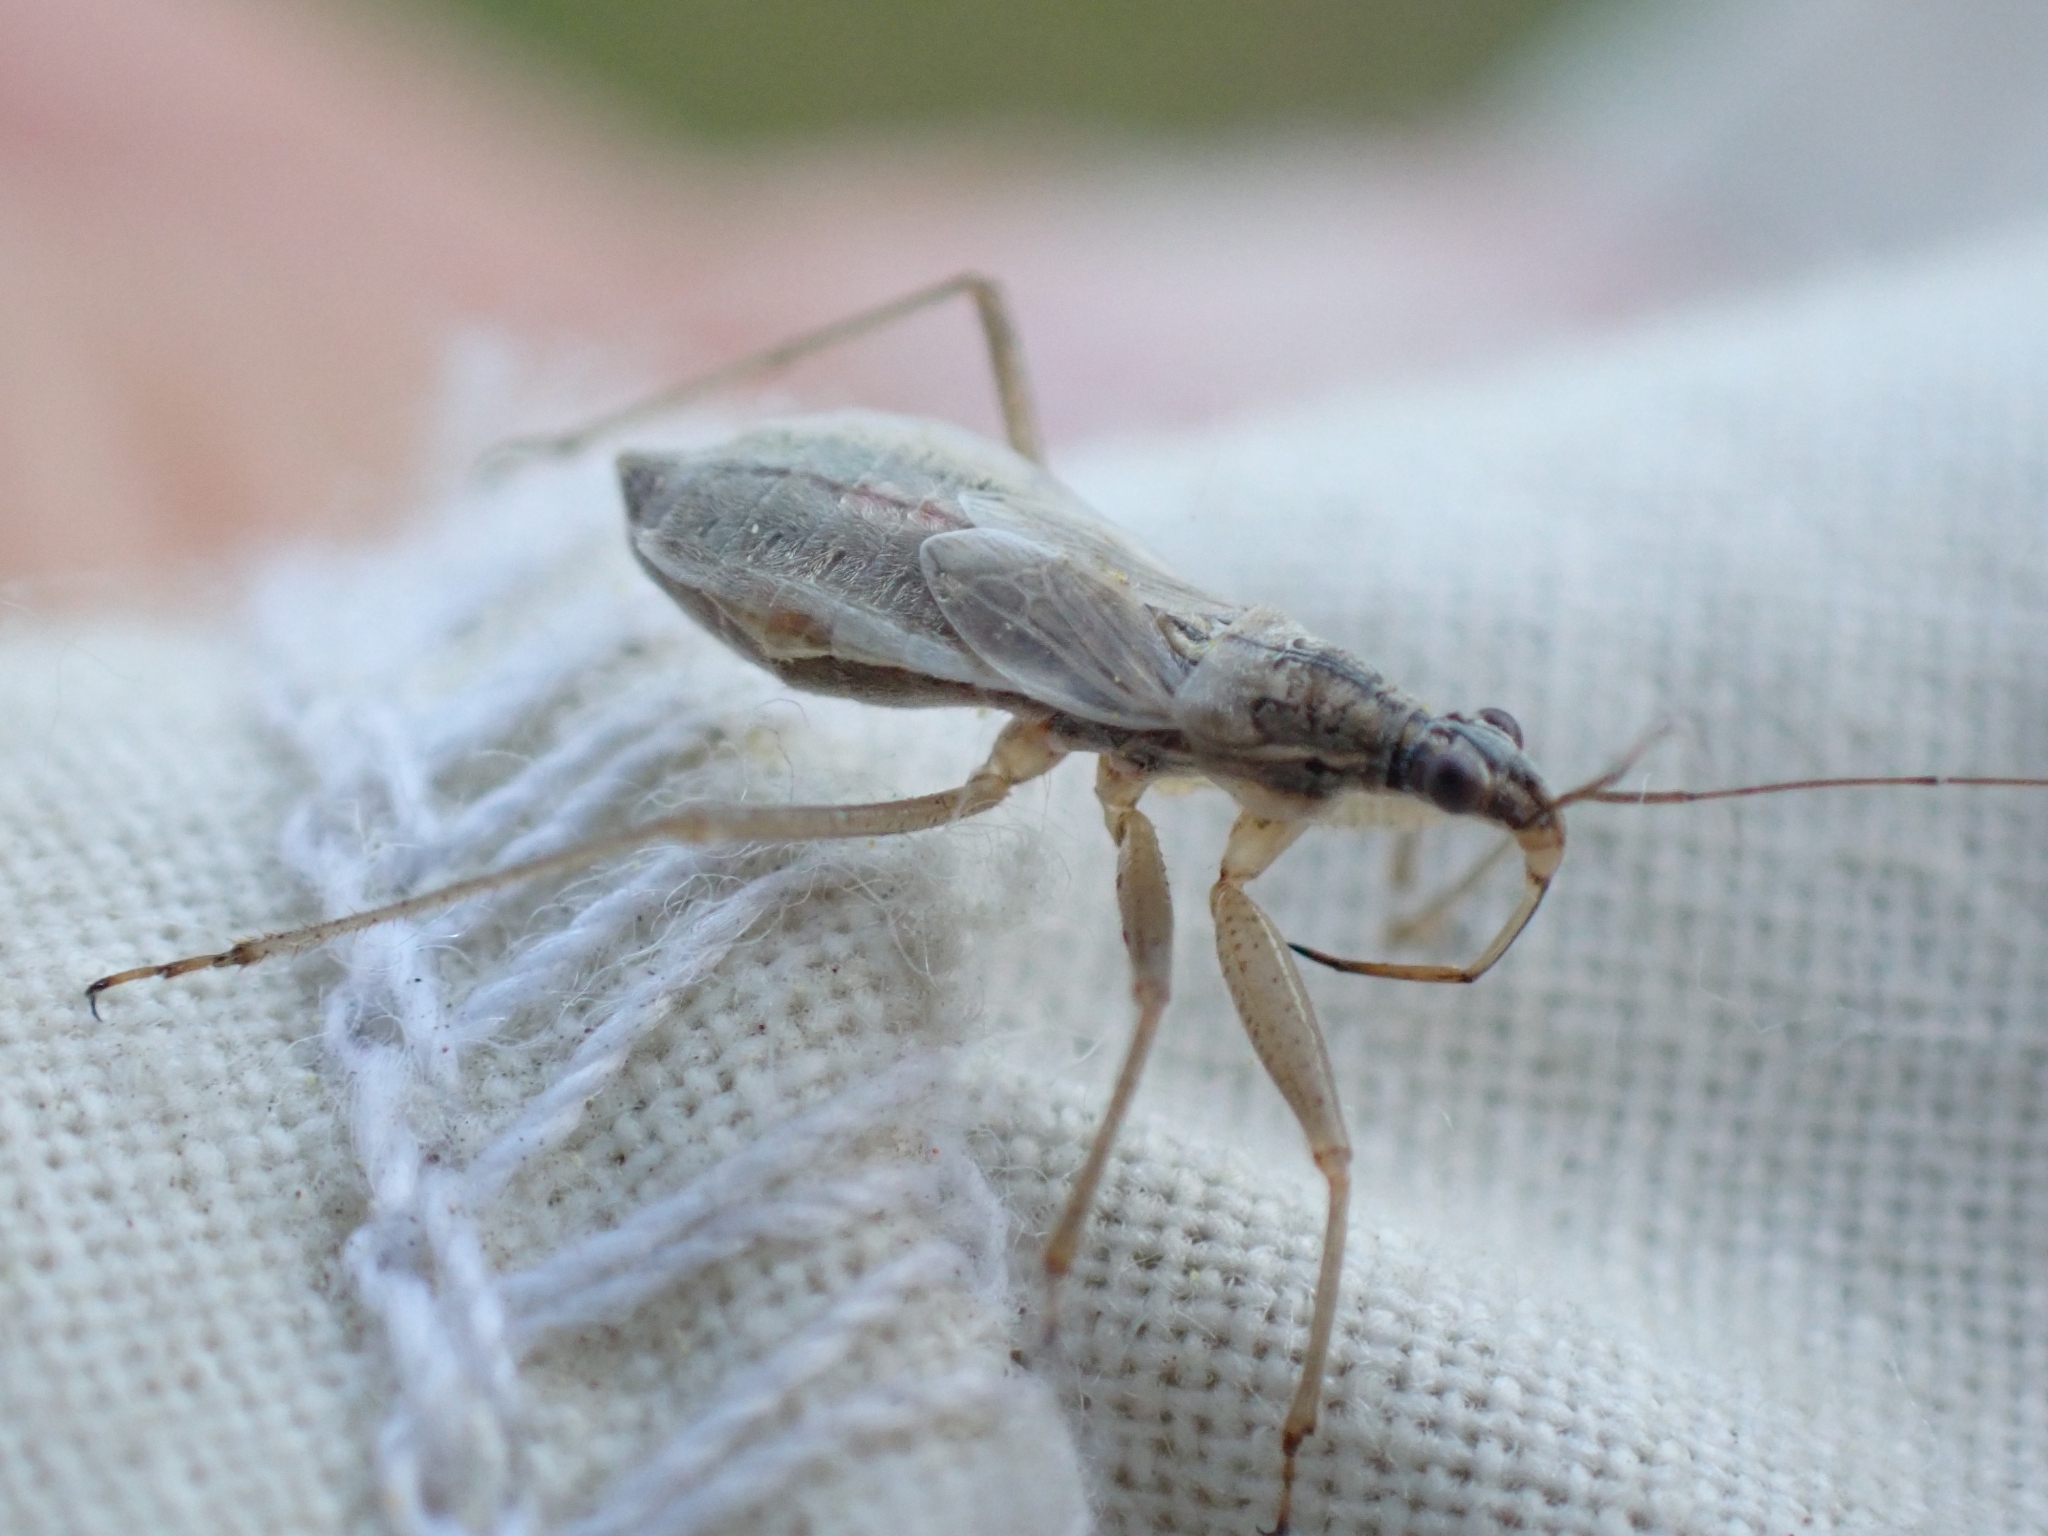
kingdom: Animalia
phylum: Arthropoda
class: Insecta
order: Hemiptera
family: Nabidae
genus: Nabis
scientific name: Nabis
